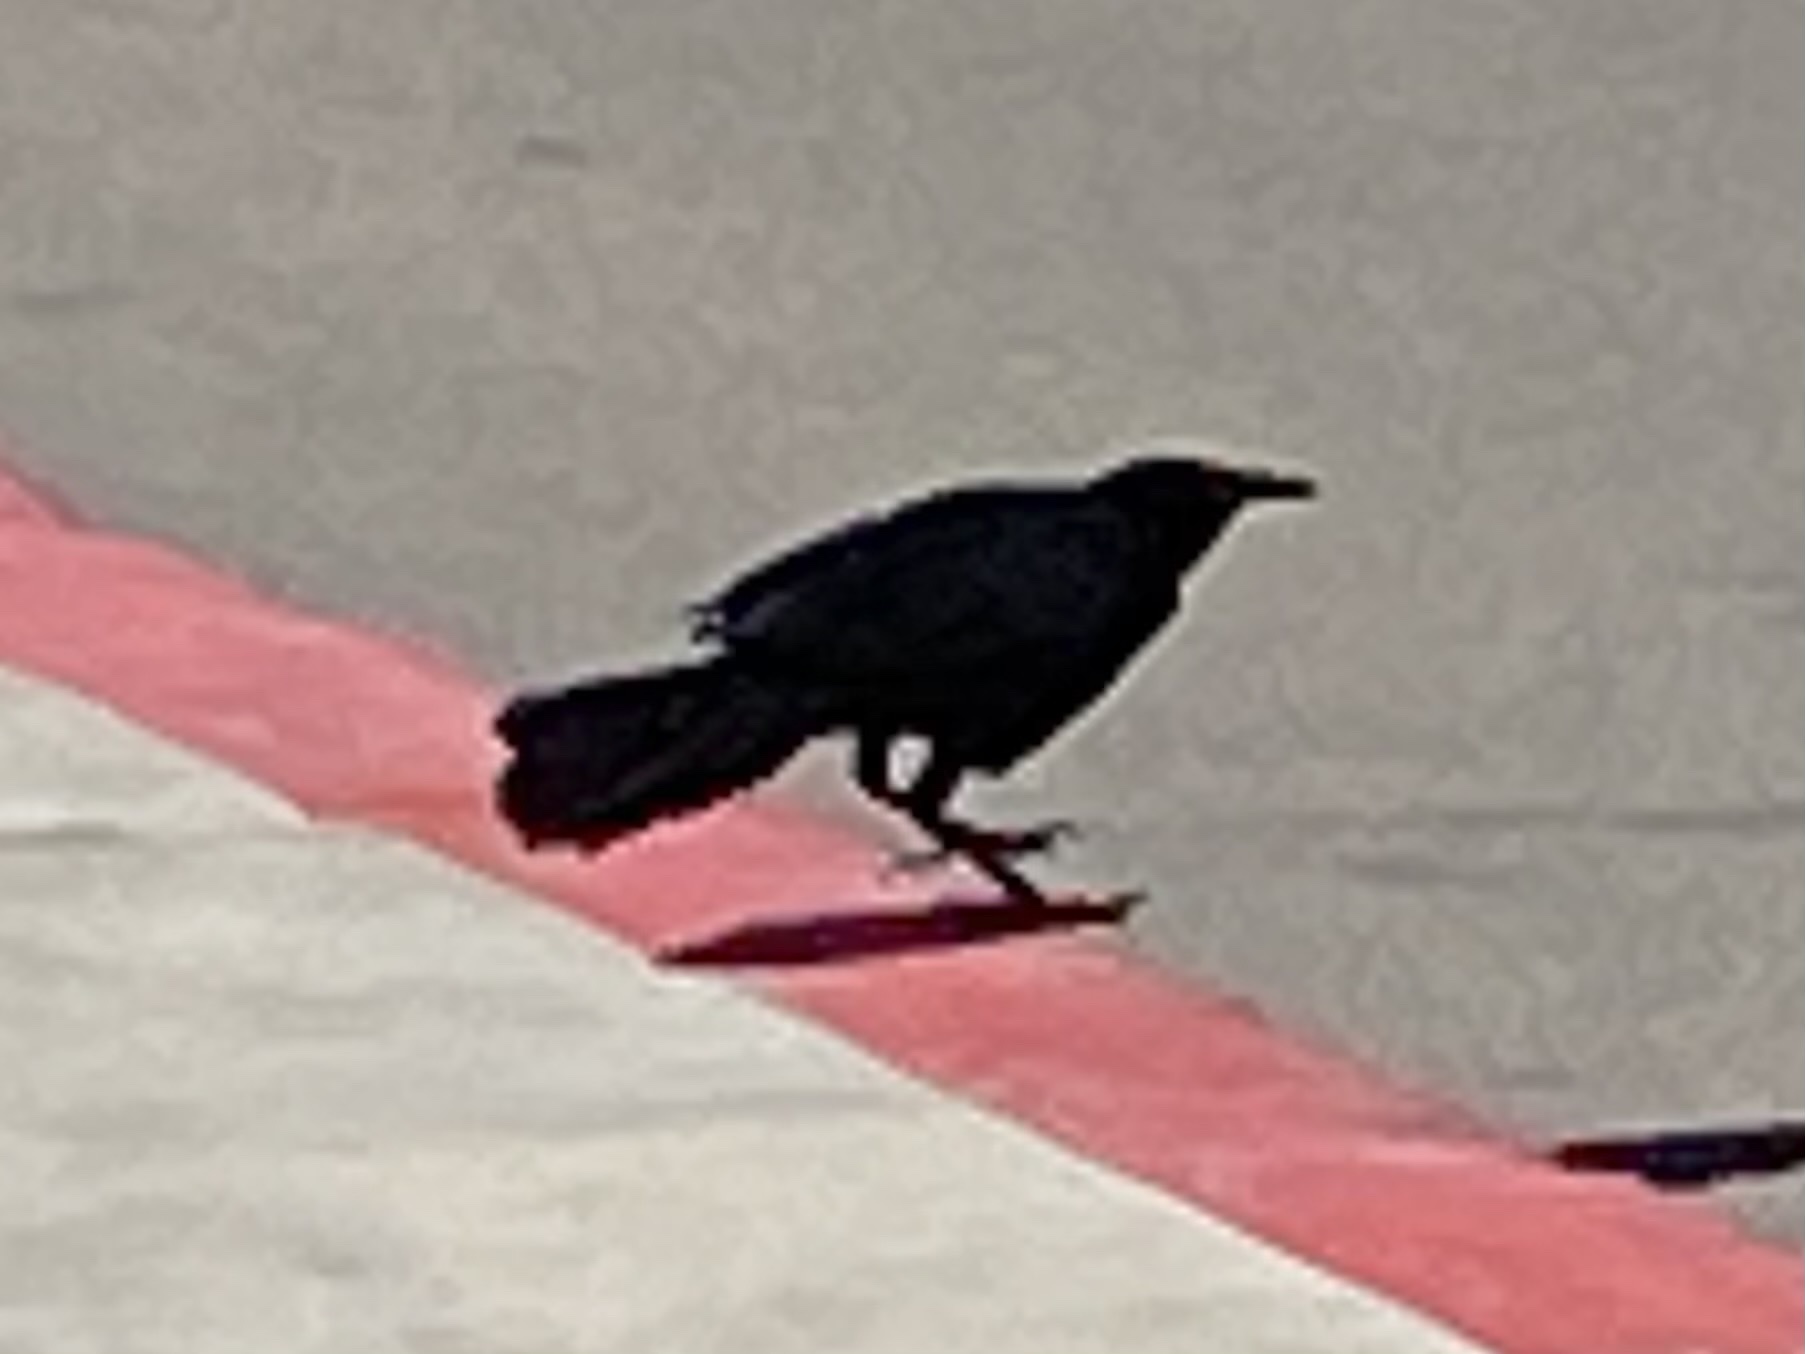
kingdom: Animalia
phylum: Chordata
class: Aves
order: Passeriformes
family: Icteridae
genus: Quiscalus
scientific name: Quiscalus mexicanus
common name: Great-tailed grackle
